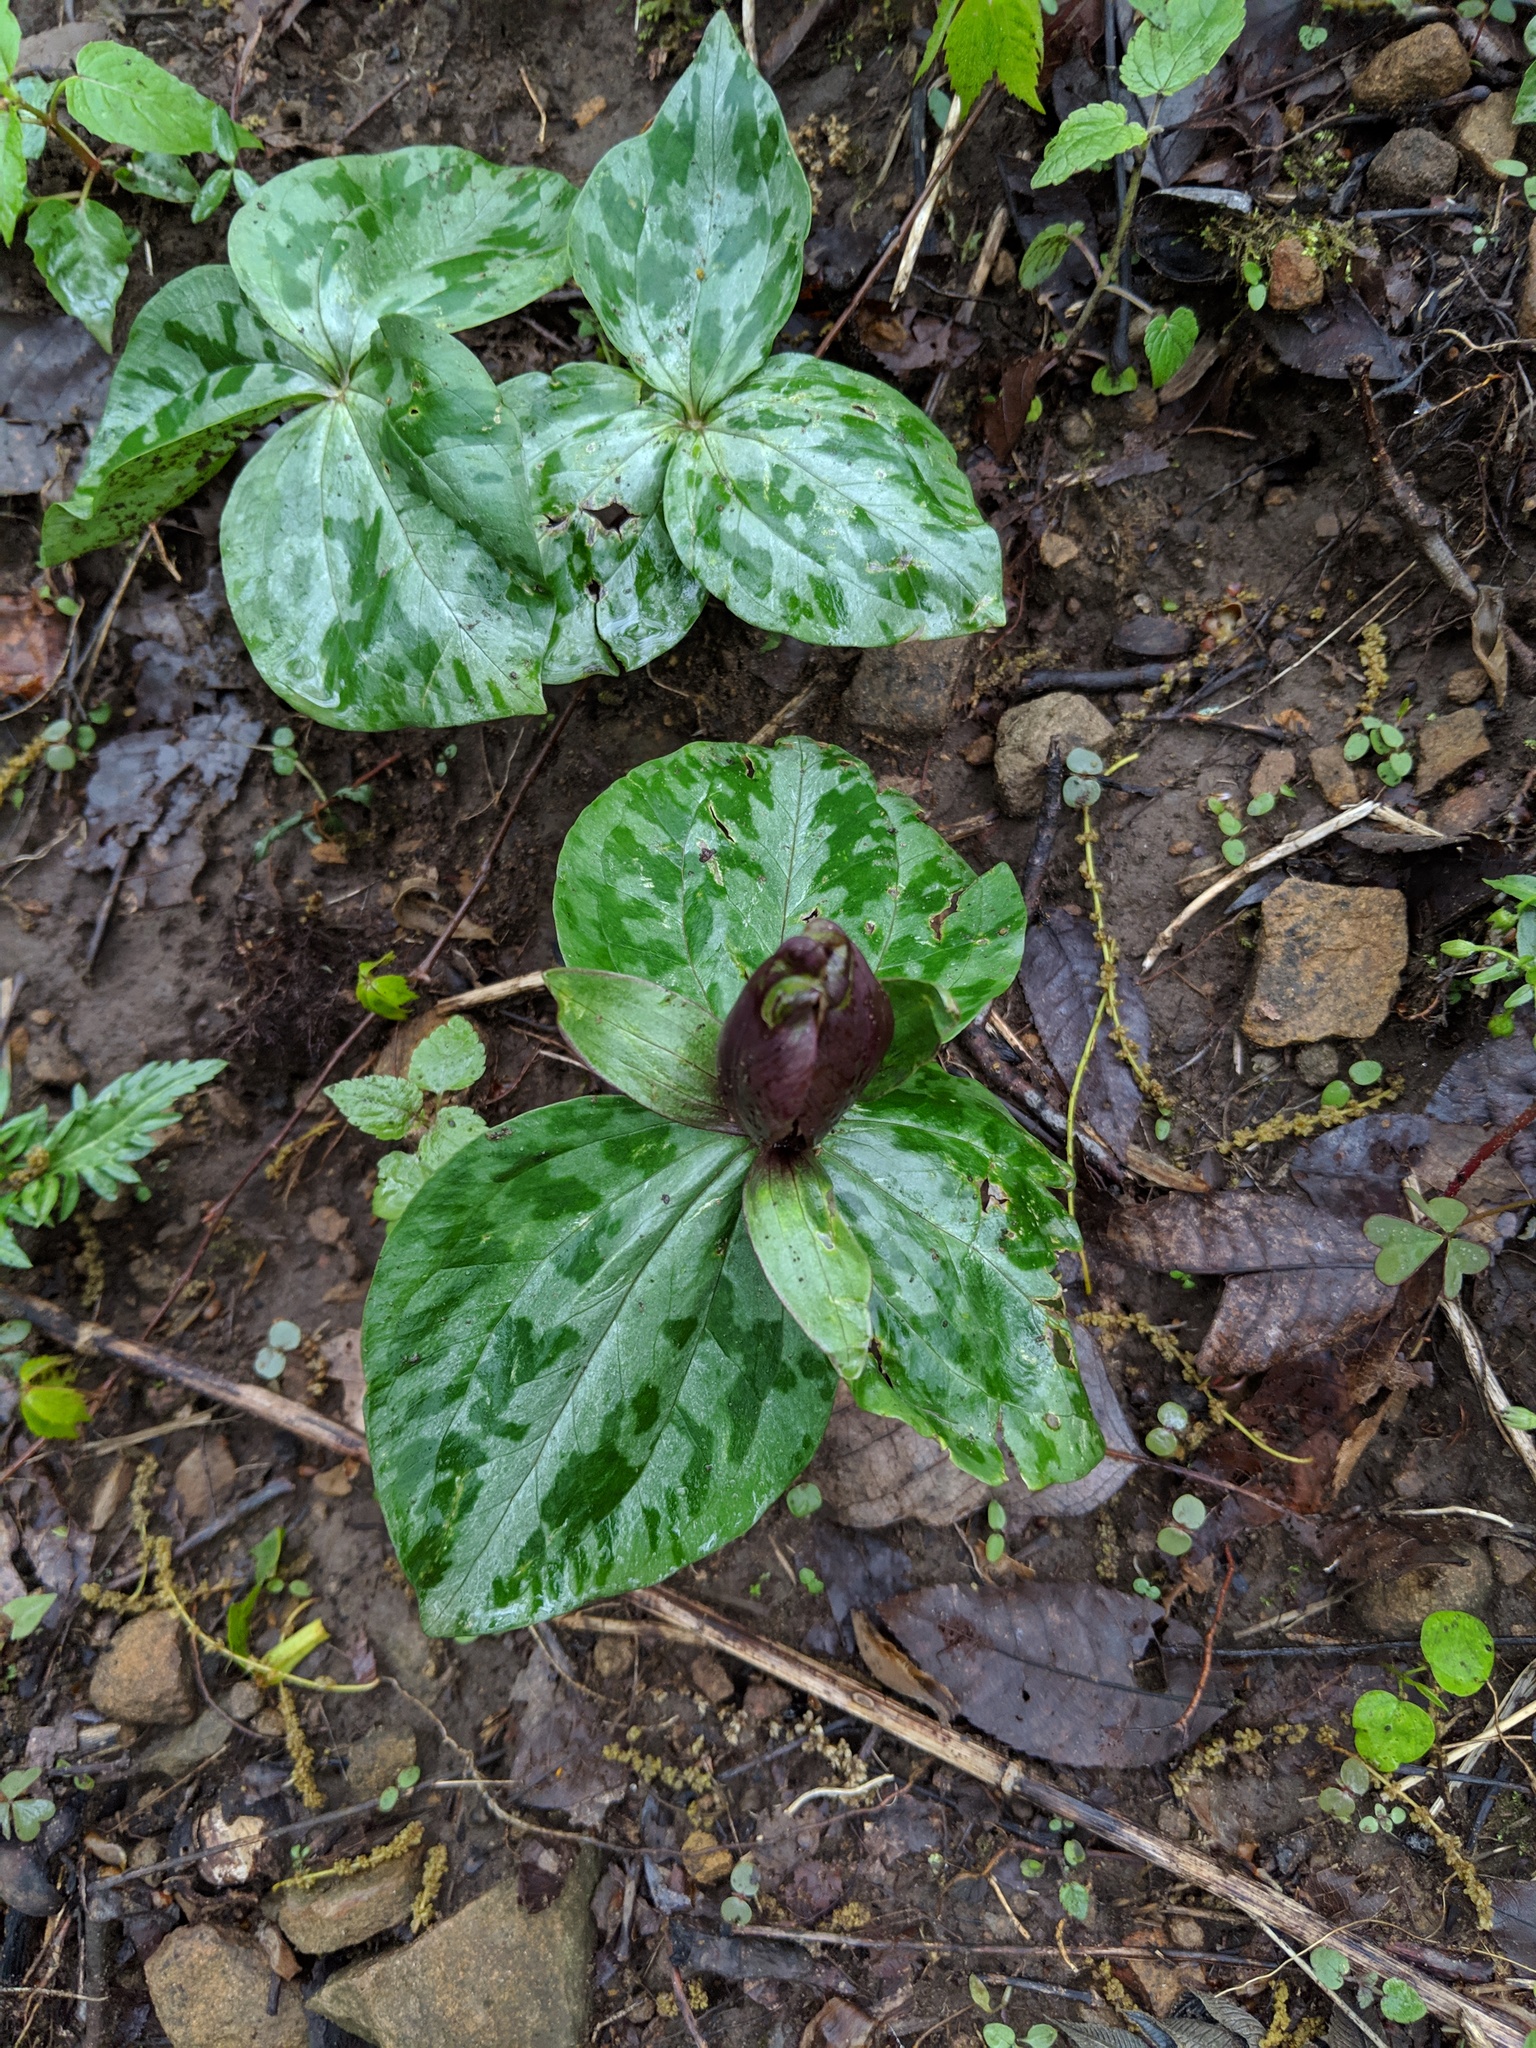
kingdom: Plantae
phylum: Tracheophyta
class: Liliopsida
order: Liliales
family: Melanthiaceae
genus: Trillium
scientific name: Trillium cuneatum
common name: Cuneate trillium
